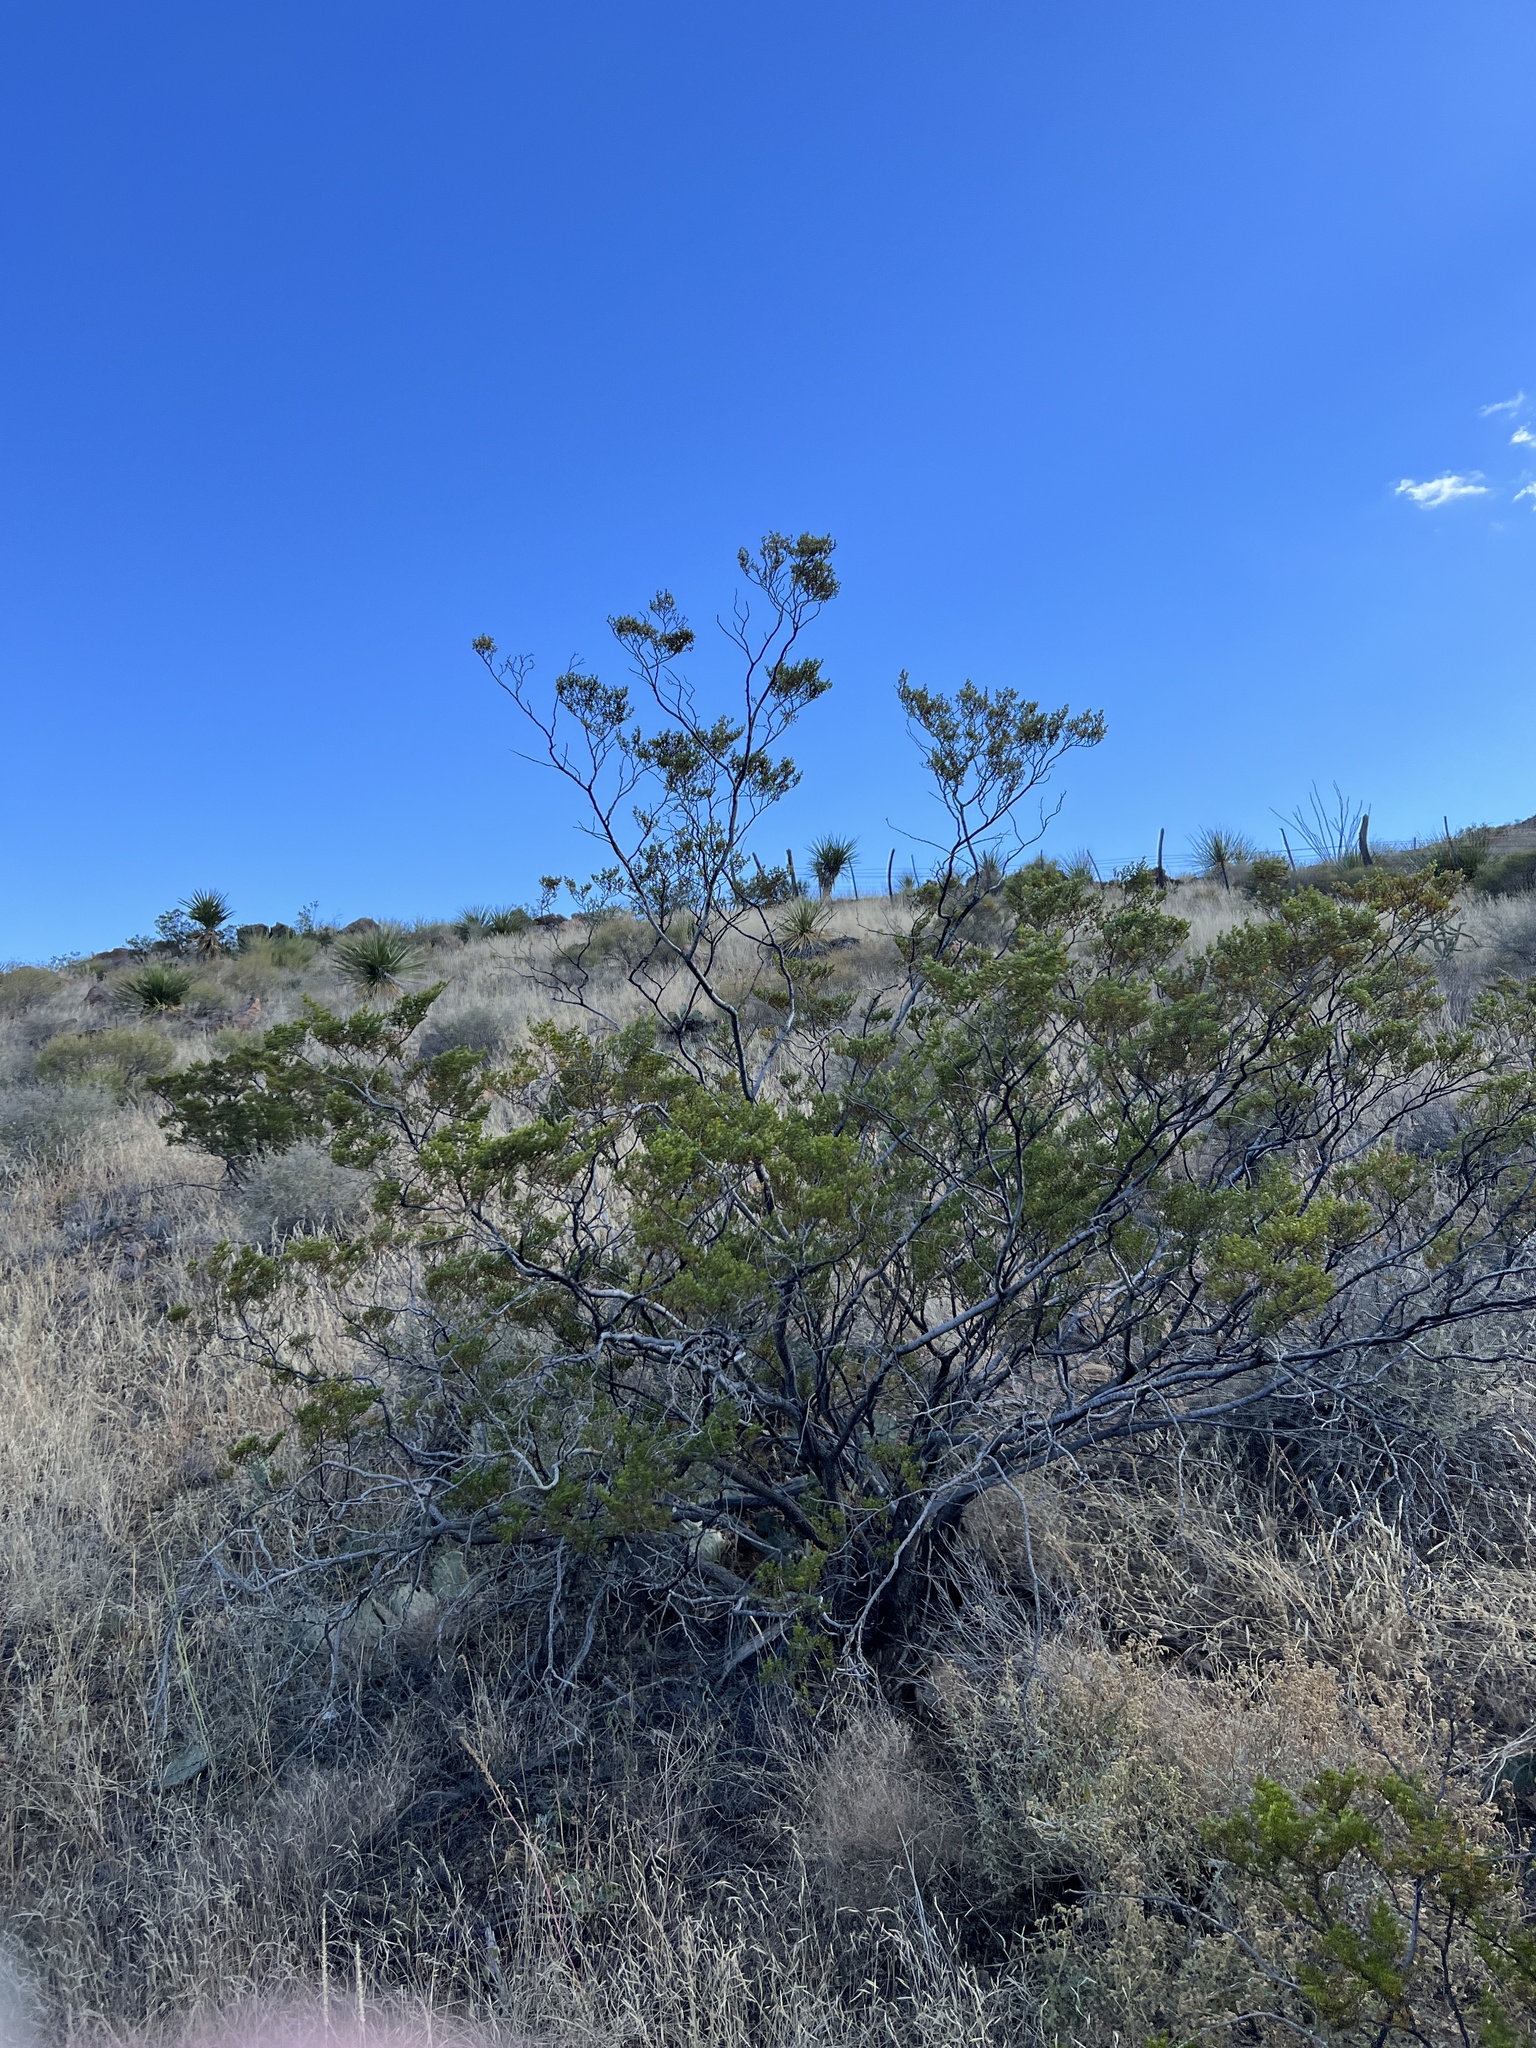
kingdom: Plantae
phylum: Tracheophyta
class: Magnoliopsida
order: Zygophyllales
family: Zygophyllaceae
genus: Larrea
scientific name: Larrea tridentata
